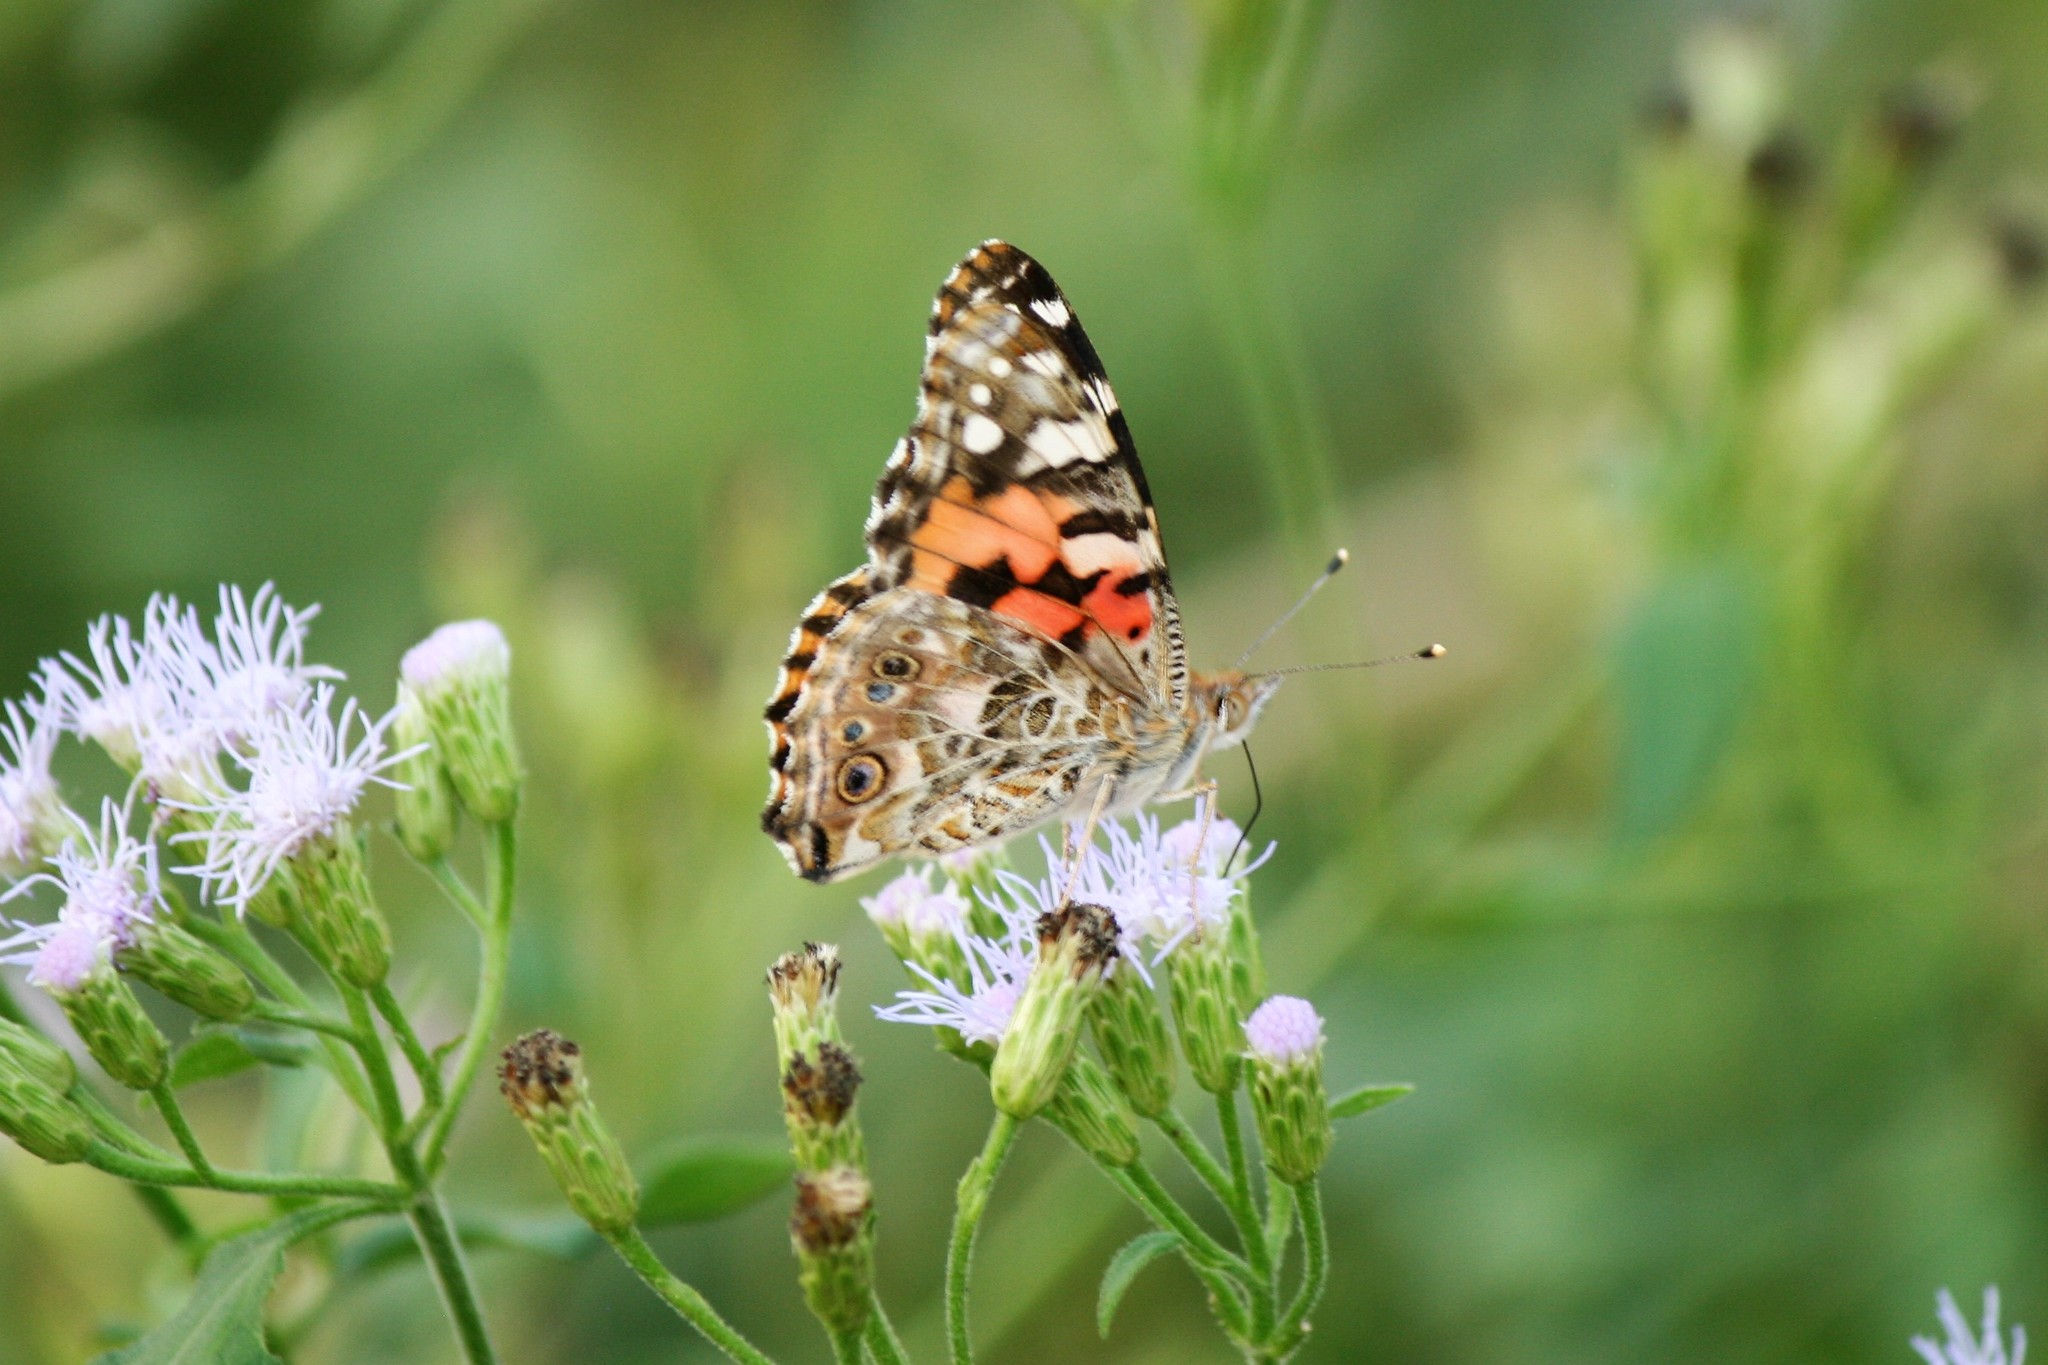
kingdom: Animalia
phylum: Arthropoda
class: Insecta
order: Lepidoptera
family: Nymphalidae
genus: Vanessa
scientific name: Vanessa cardui
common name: Painted lady
